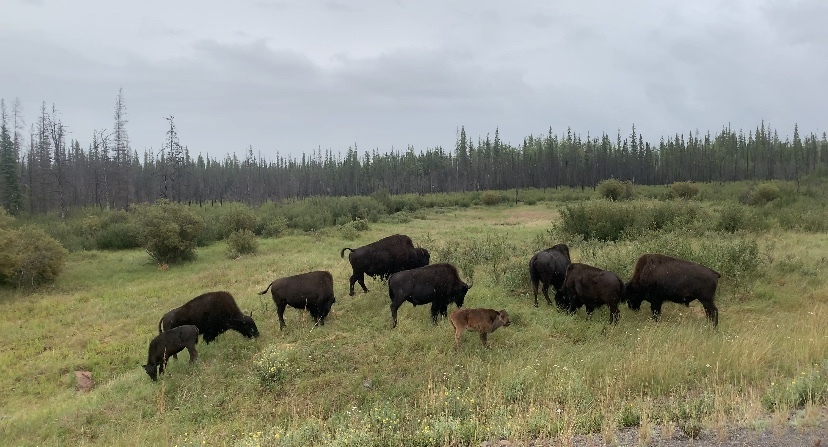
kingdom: Animalia
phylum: Chordata
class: Mammalia
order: Artiodactyla
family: Bovidae
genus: Bison
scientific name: Bison bison
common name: American bison
